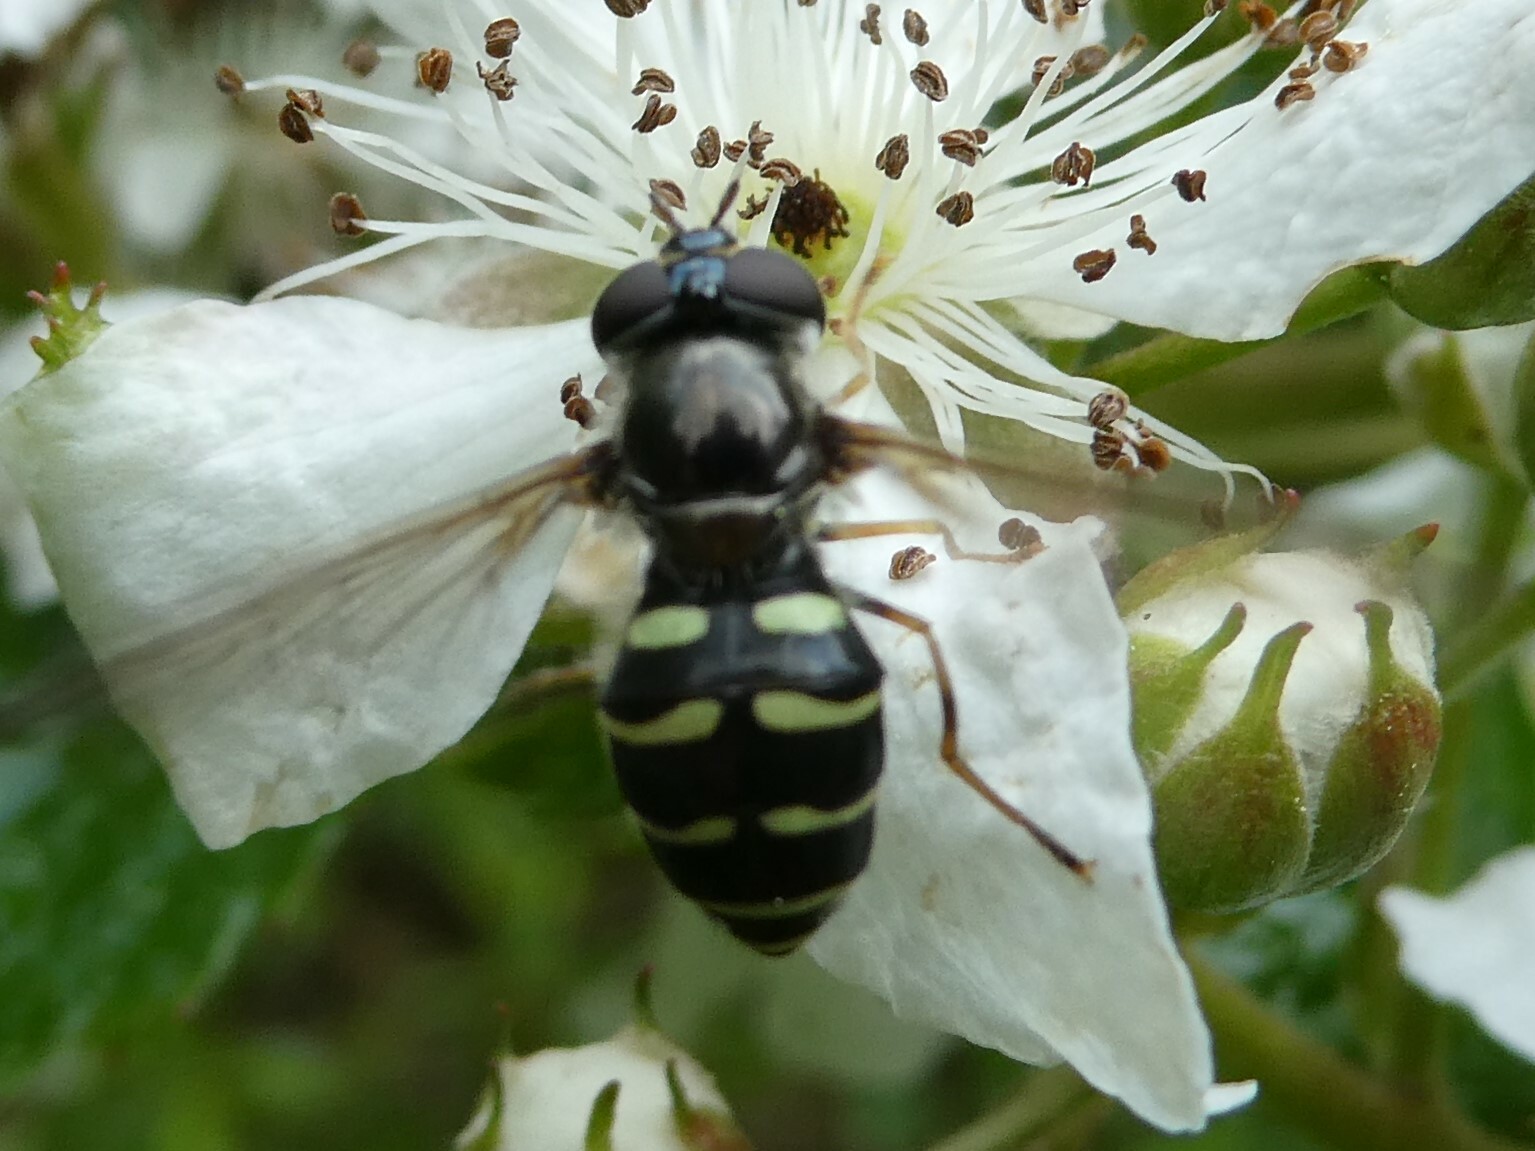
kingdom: Animalia
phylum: Arthropoda
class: Insecta
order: Diptera
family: Syrphidae
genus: Dasysyrphus
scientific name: Dasysyrphus
